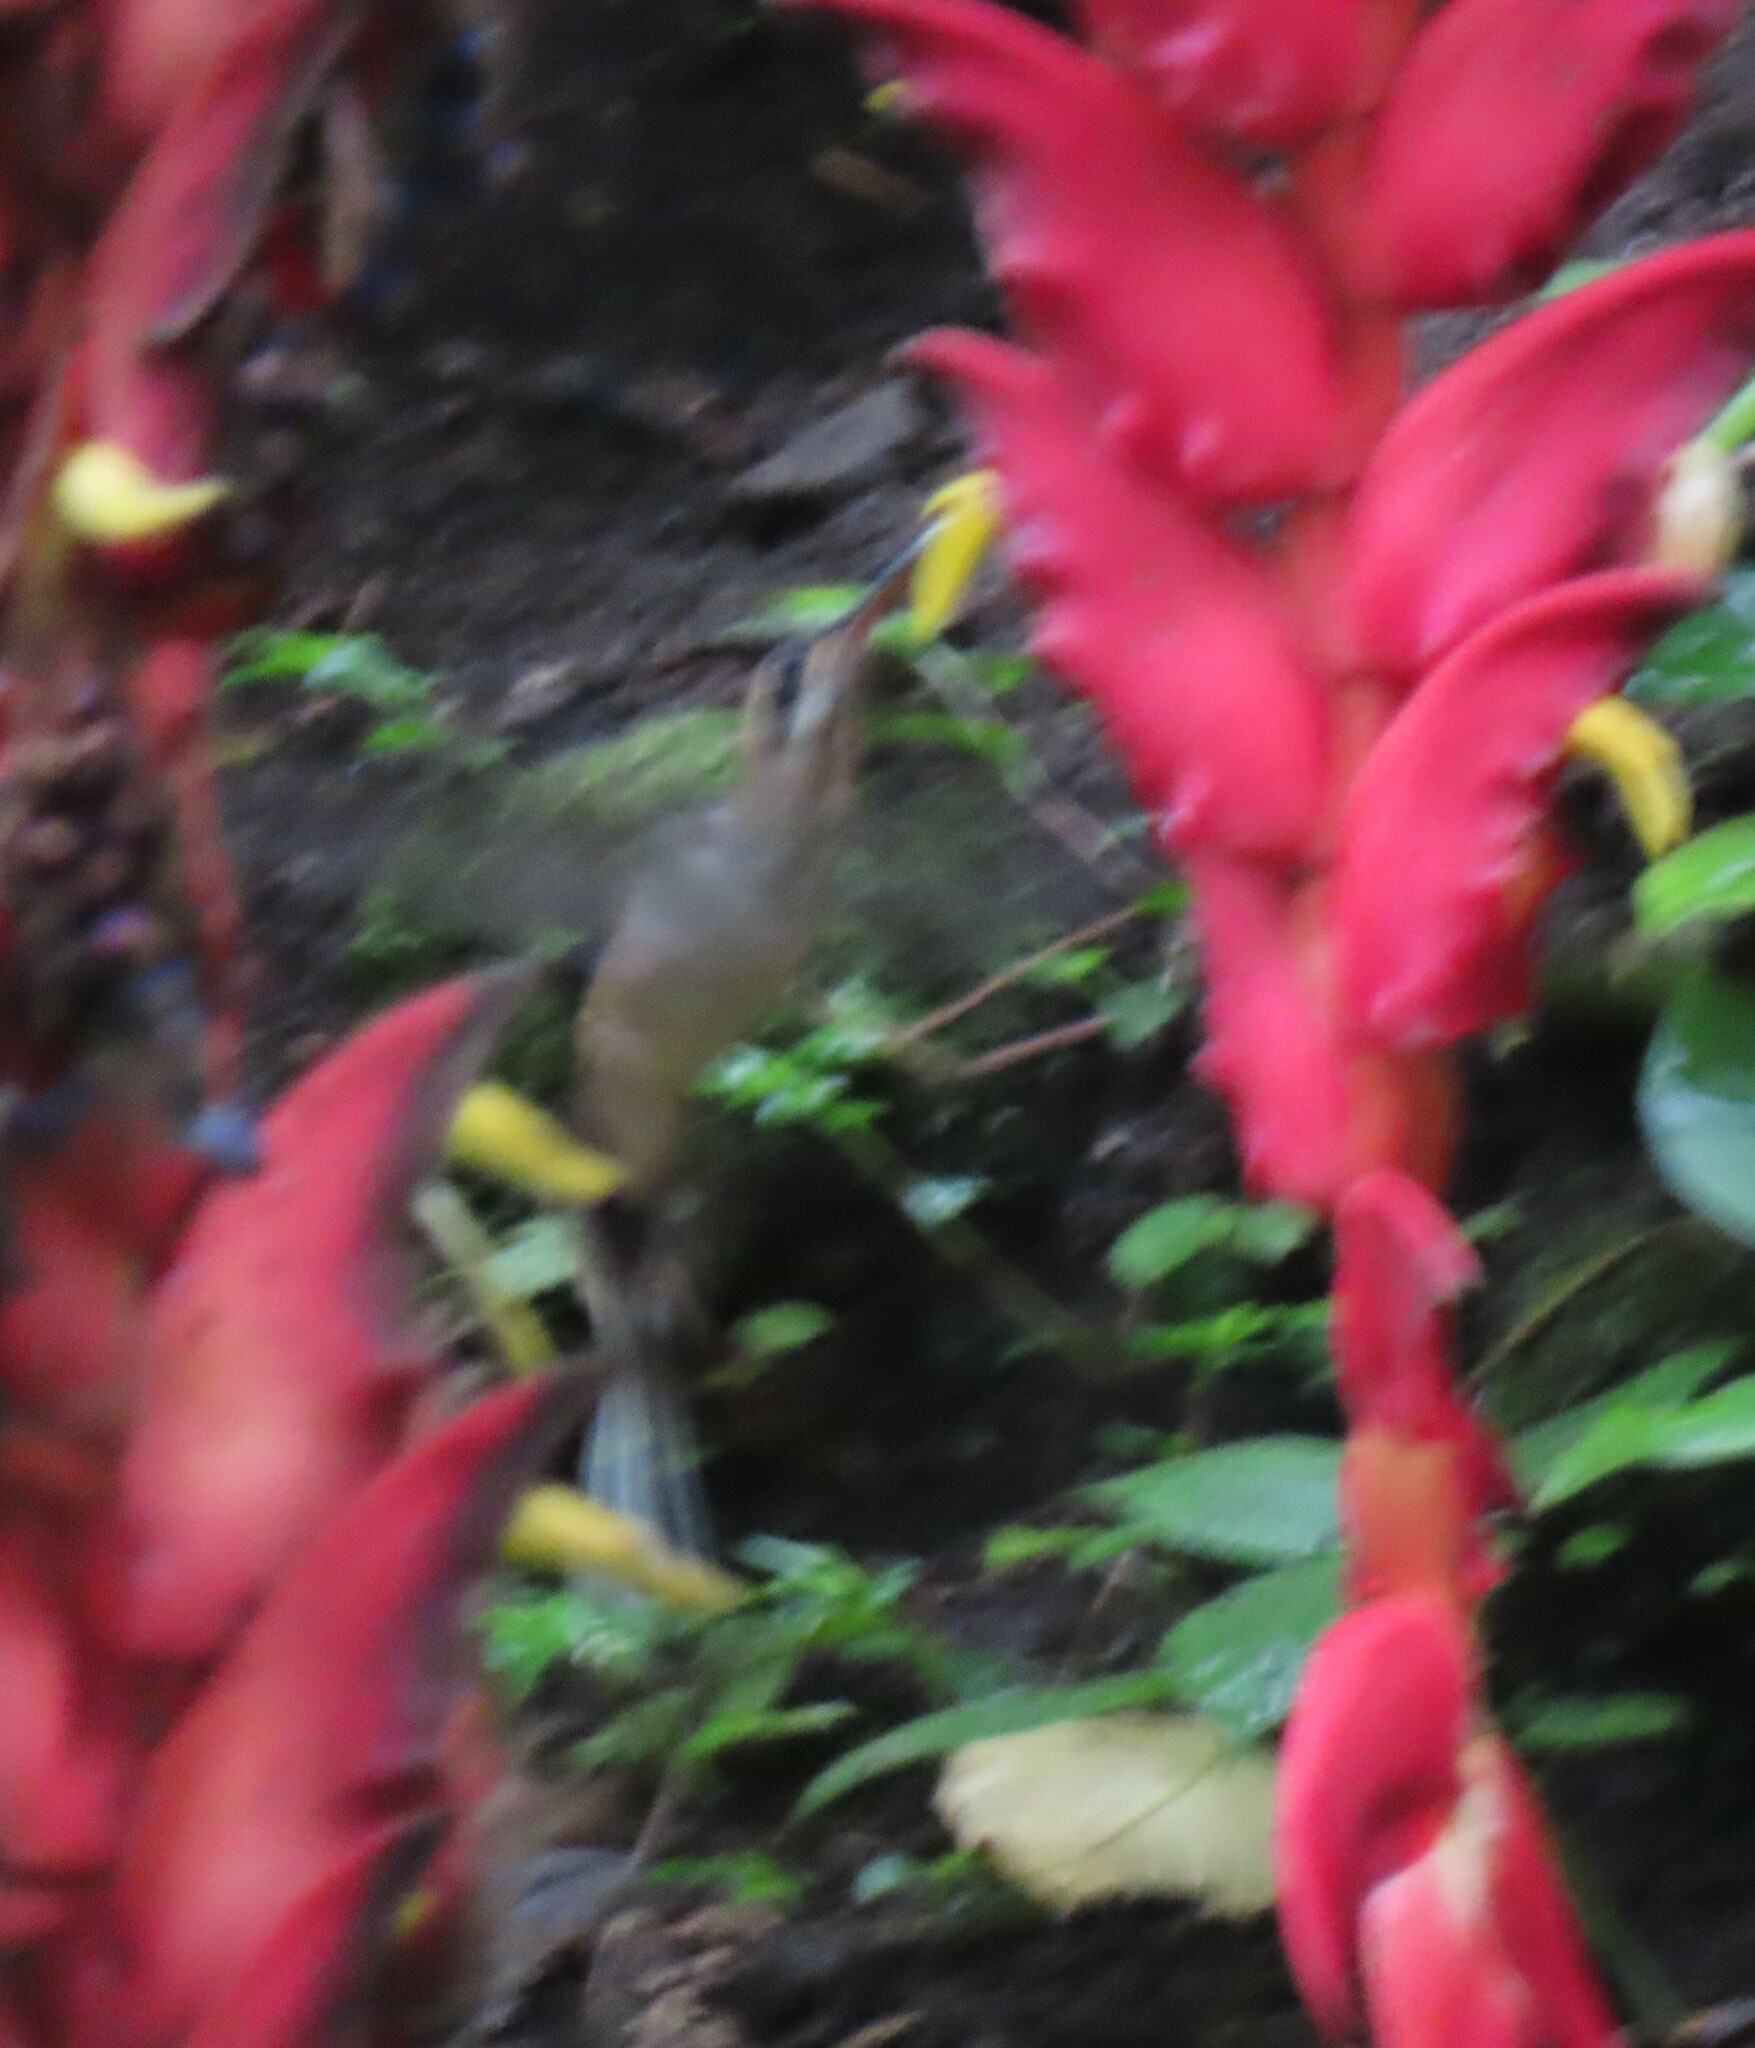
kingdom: Animalia
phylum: Chordata
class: Aves
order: Apodiformes
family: Trochilidae
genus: Phaethornis
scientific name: Phaethornis longirostris
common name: Long-billed hermit
